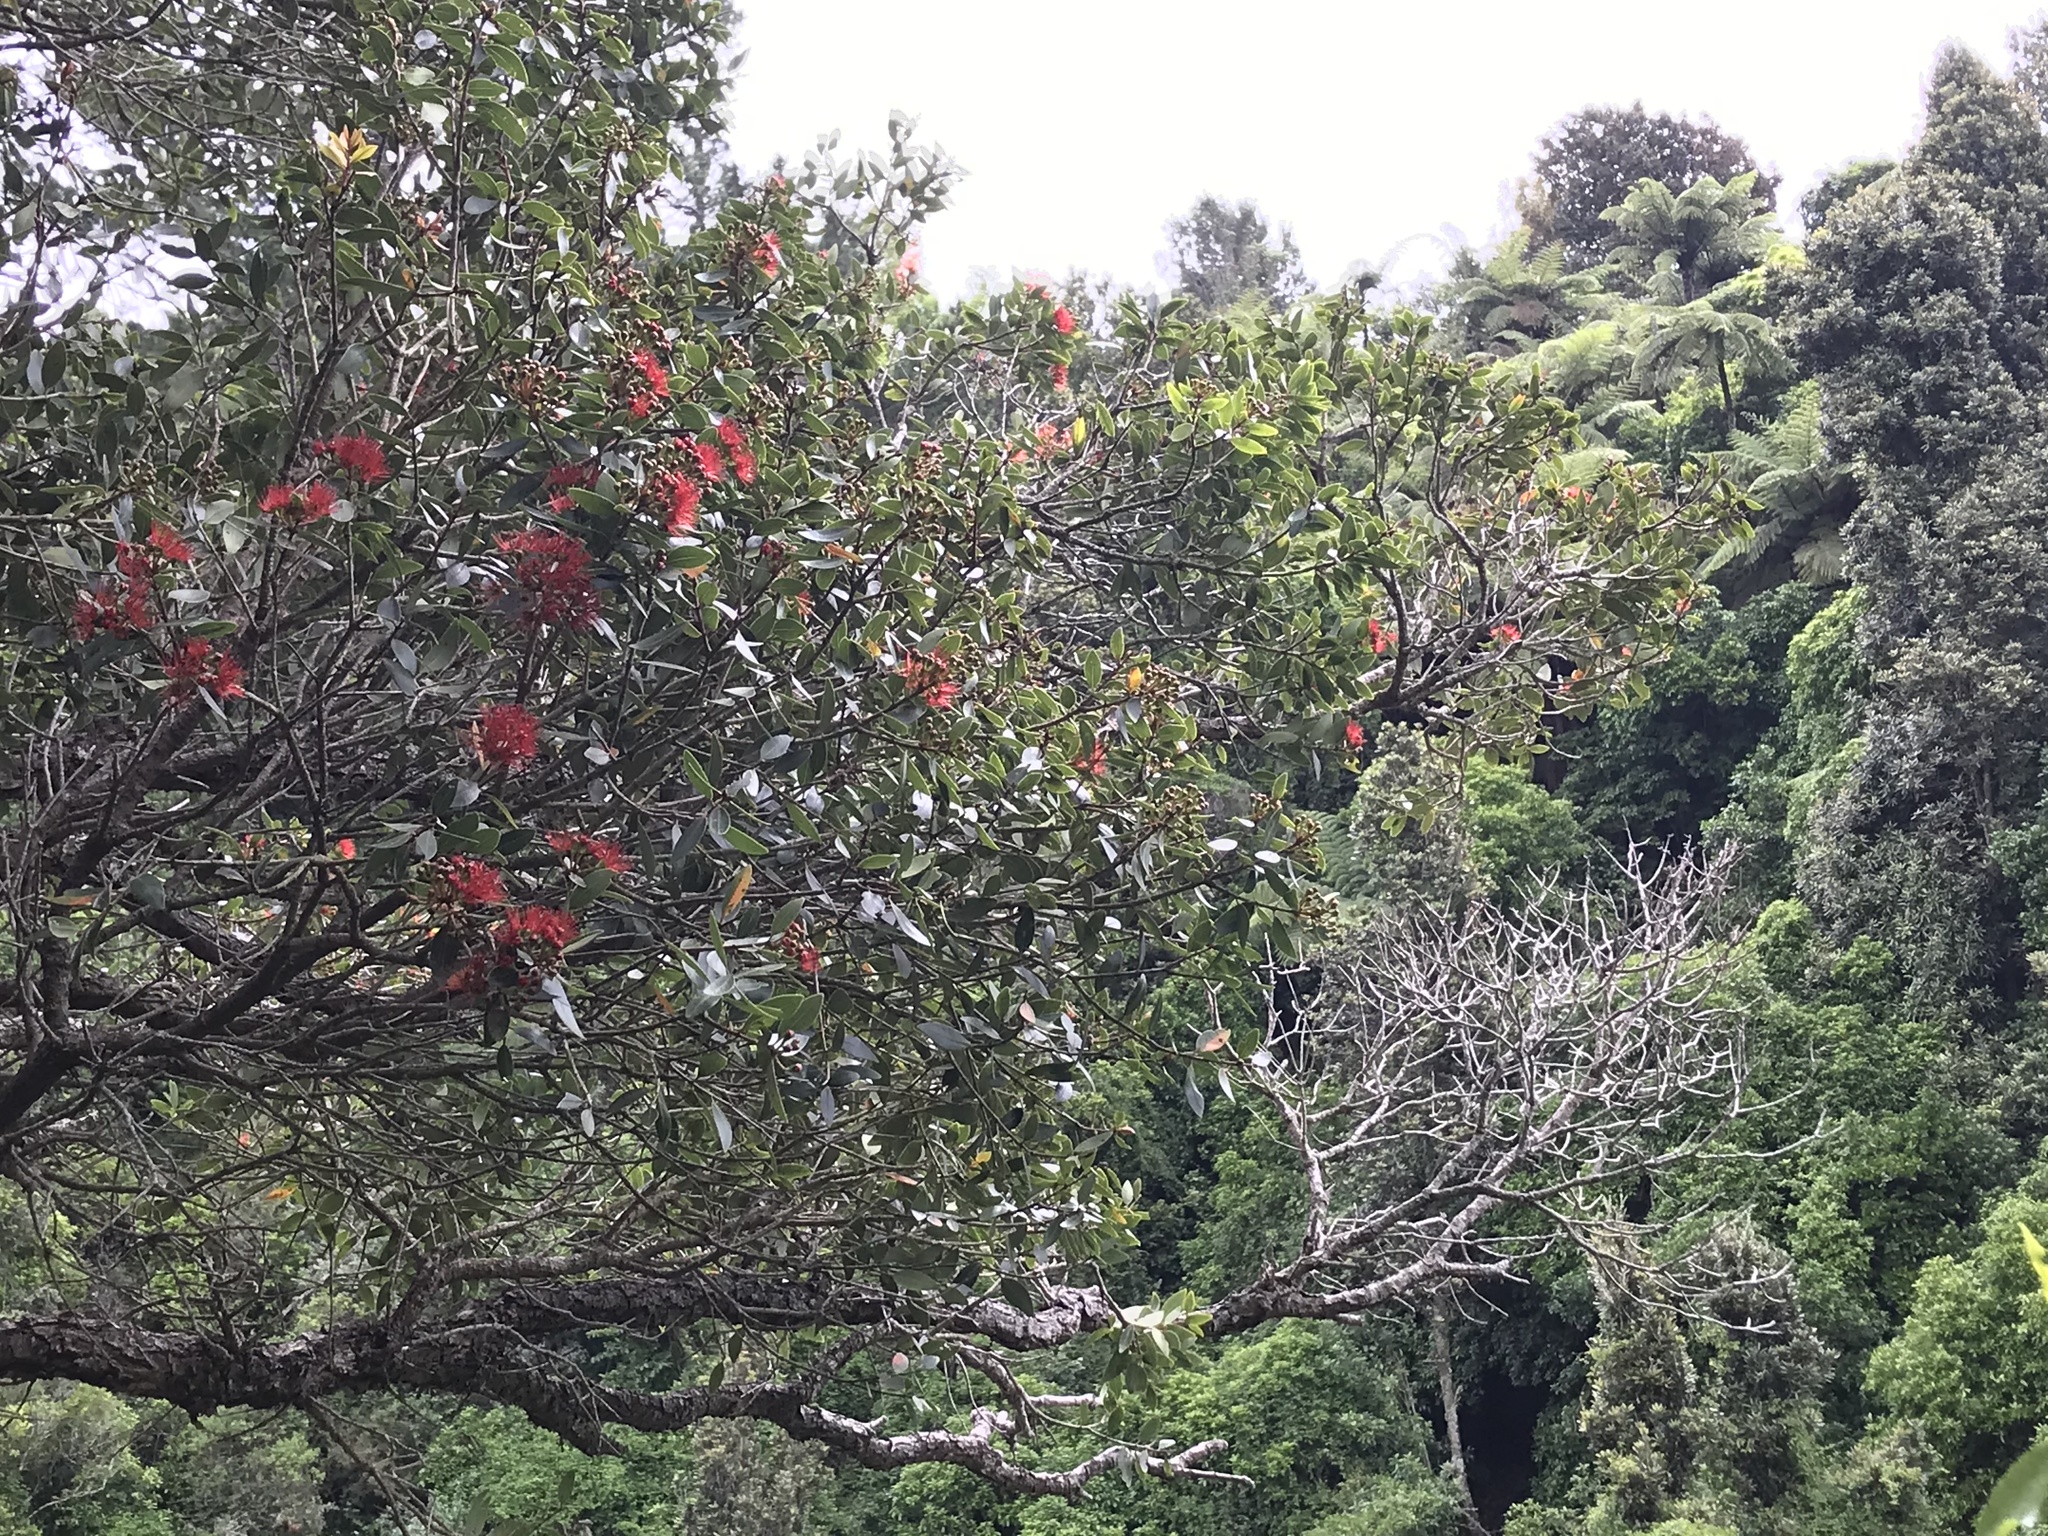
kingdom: Plantae
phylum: Tracheophyta
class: Magnoliopsida
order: Myrtales
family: Myrtaceae
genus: Metrosideros
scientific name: Metrosideros robusta
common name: Northern rata
